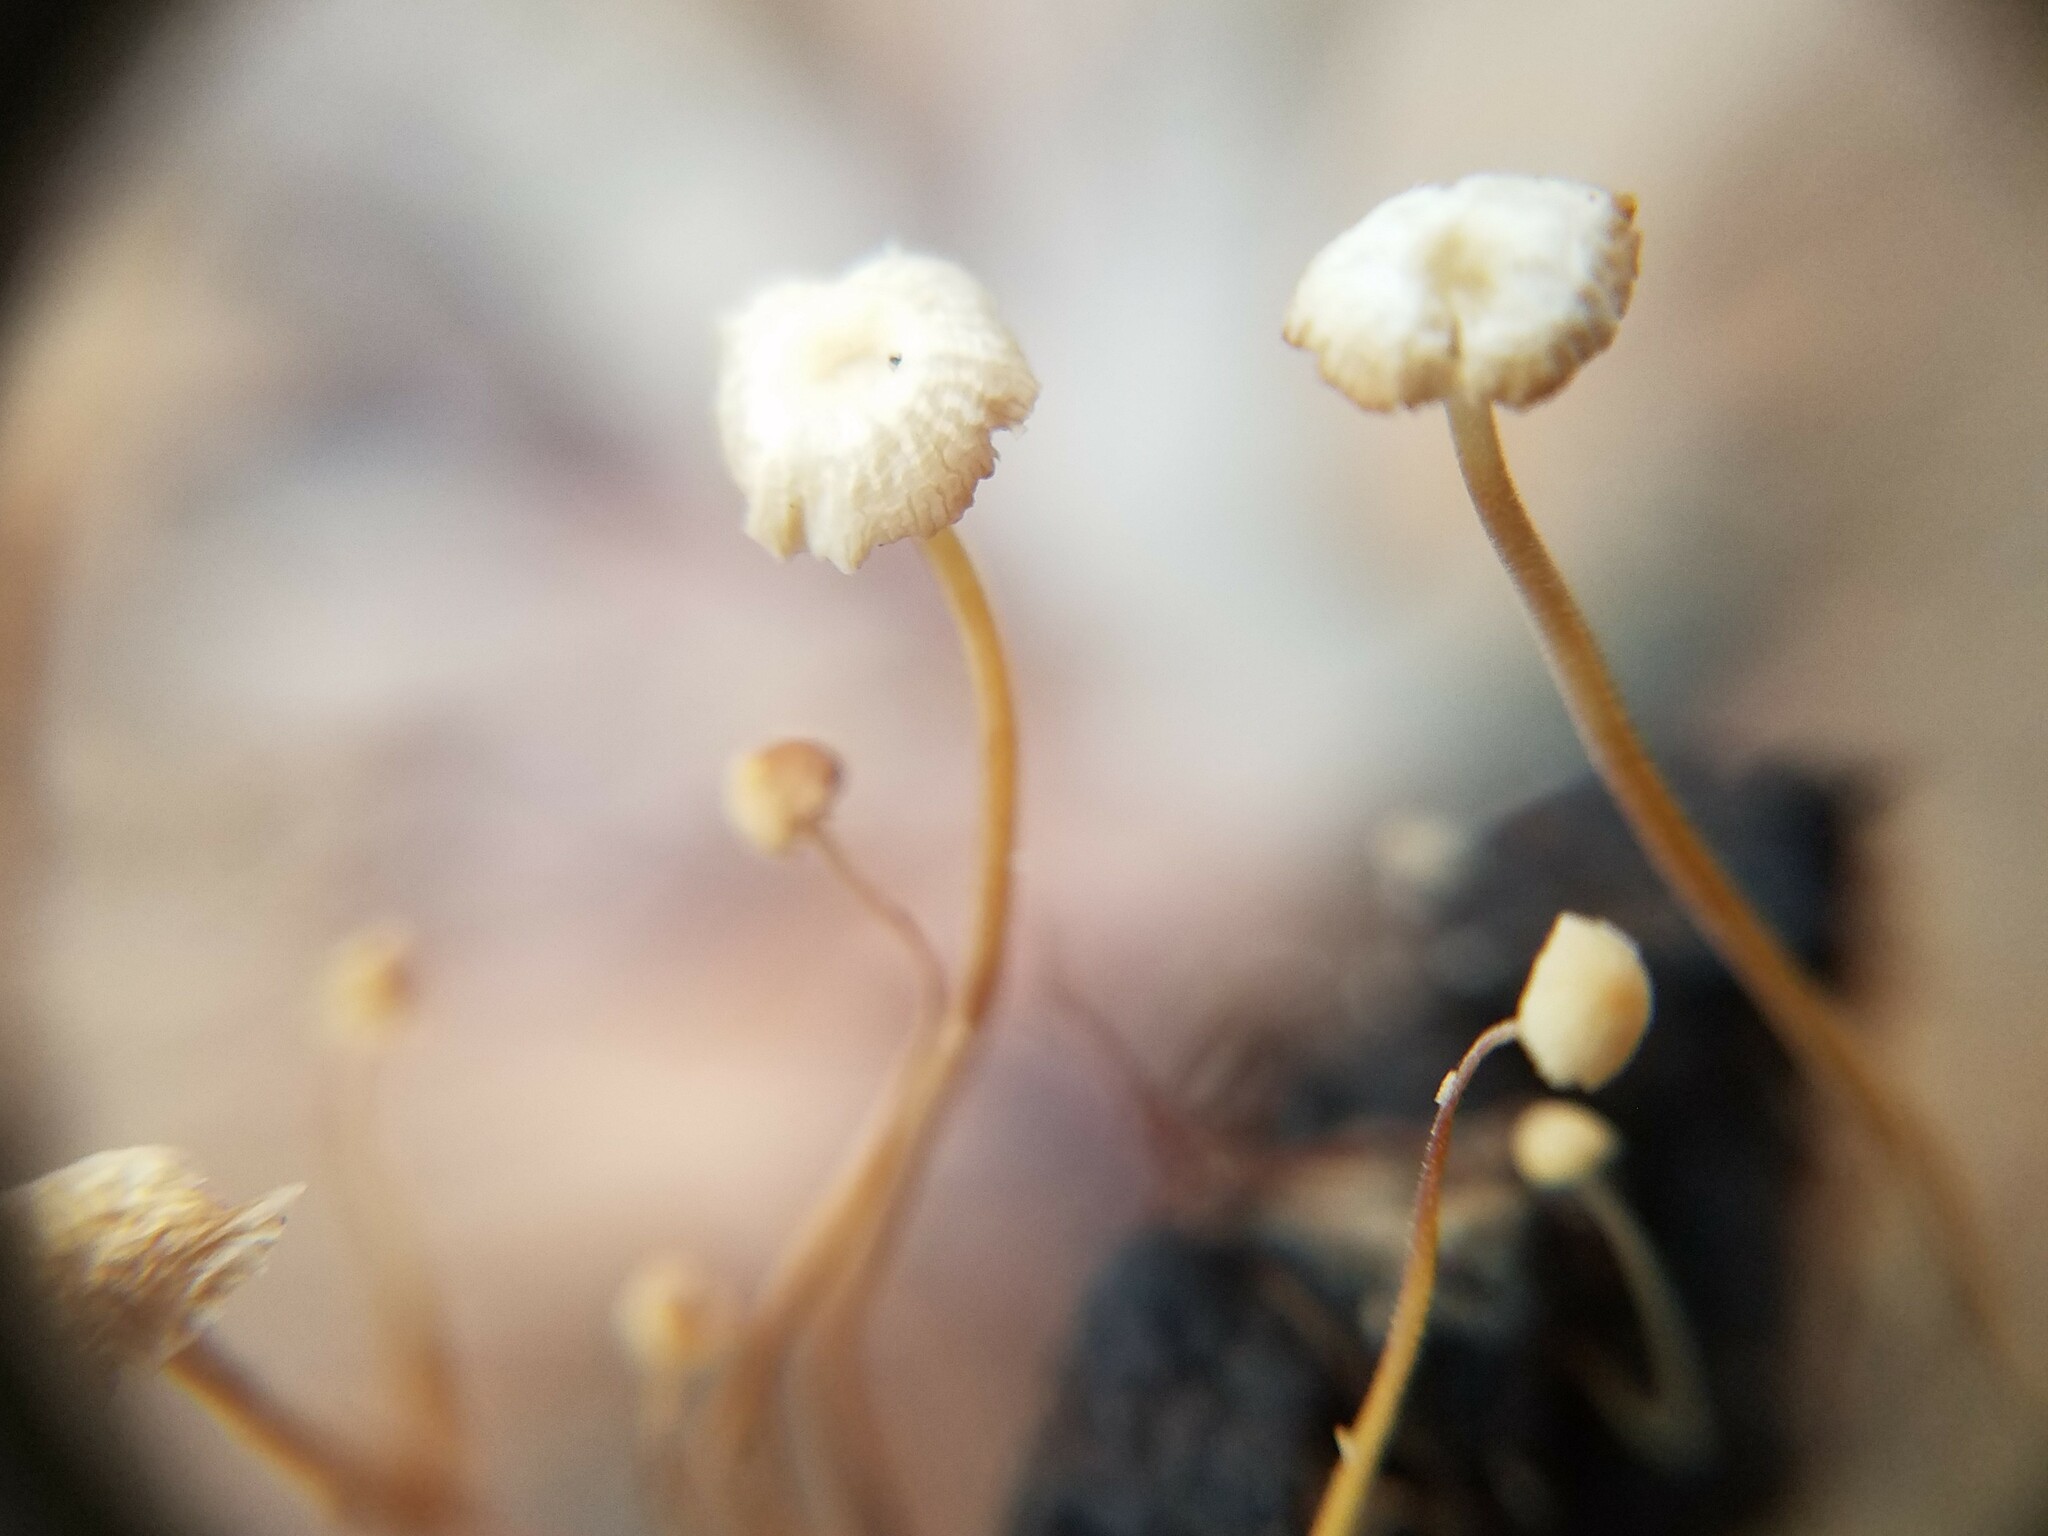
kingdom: Fungi
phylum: Basidiomycota
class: Agaricomycetes
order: Agaricales
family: Physalacriaceae
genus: Strobilurus
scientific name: Strobilurus conigenoides
